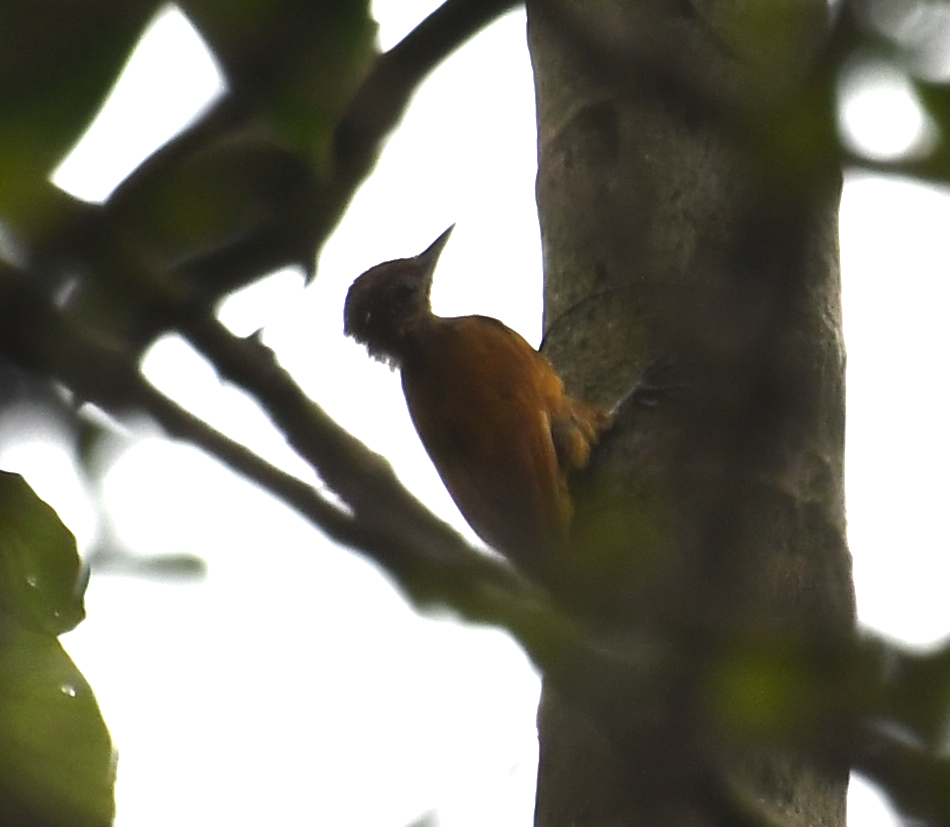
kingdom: Animalia
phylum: Chordata
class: Aves
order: Piciformes
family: Picidae
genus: Leuconotopicus
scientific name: Leuconotopicus fumigatus
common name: Smoky-brown woodpecker
